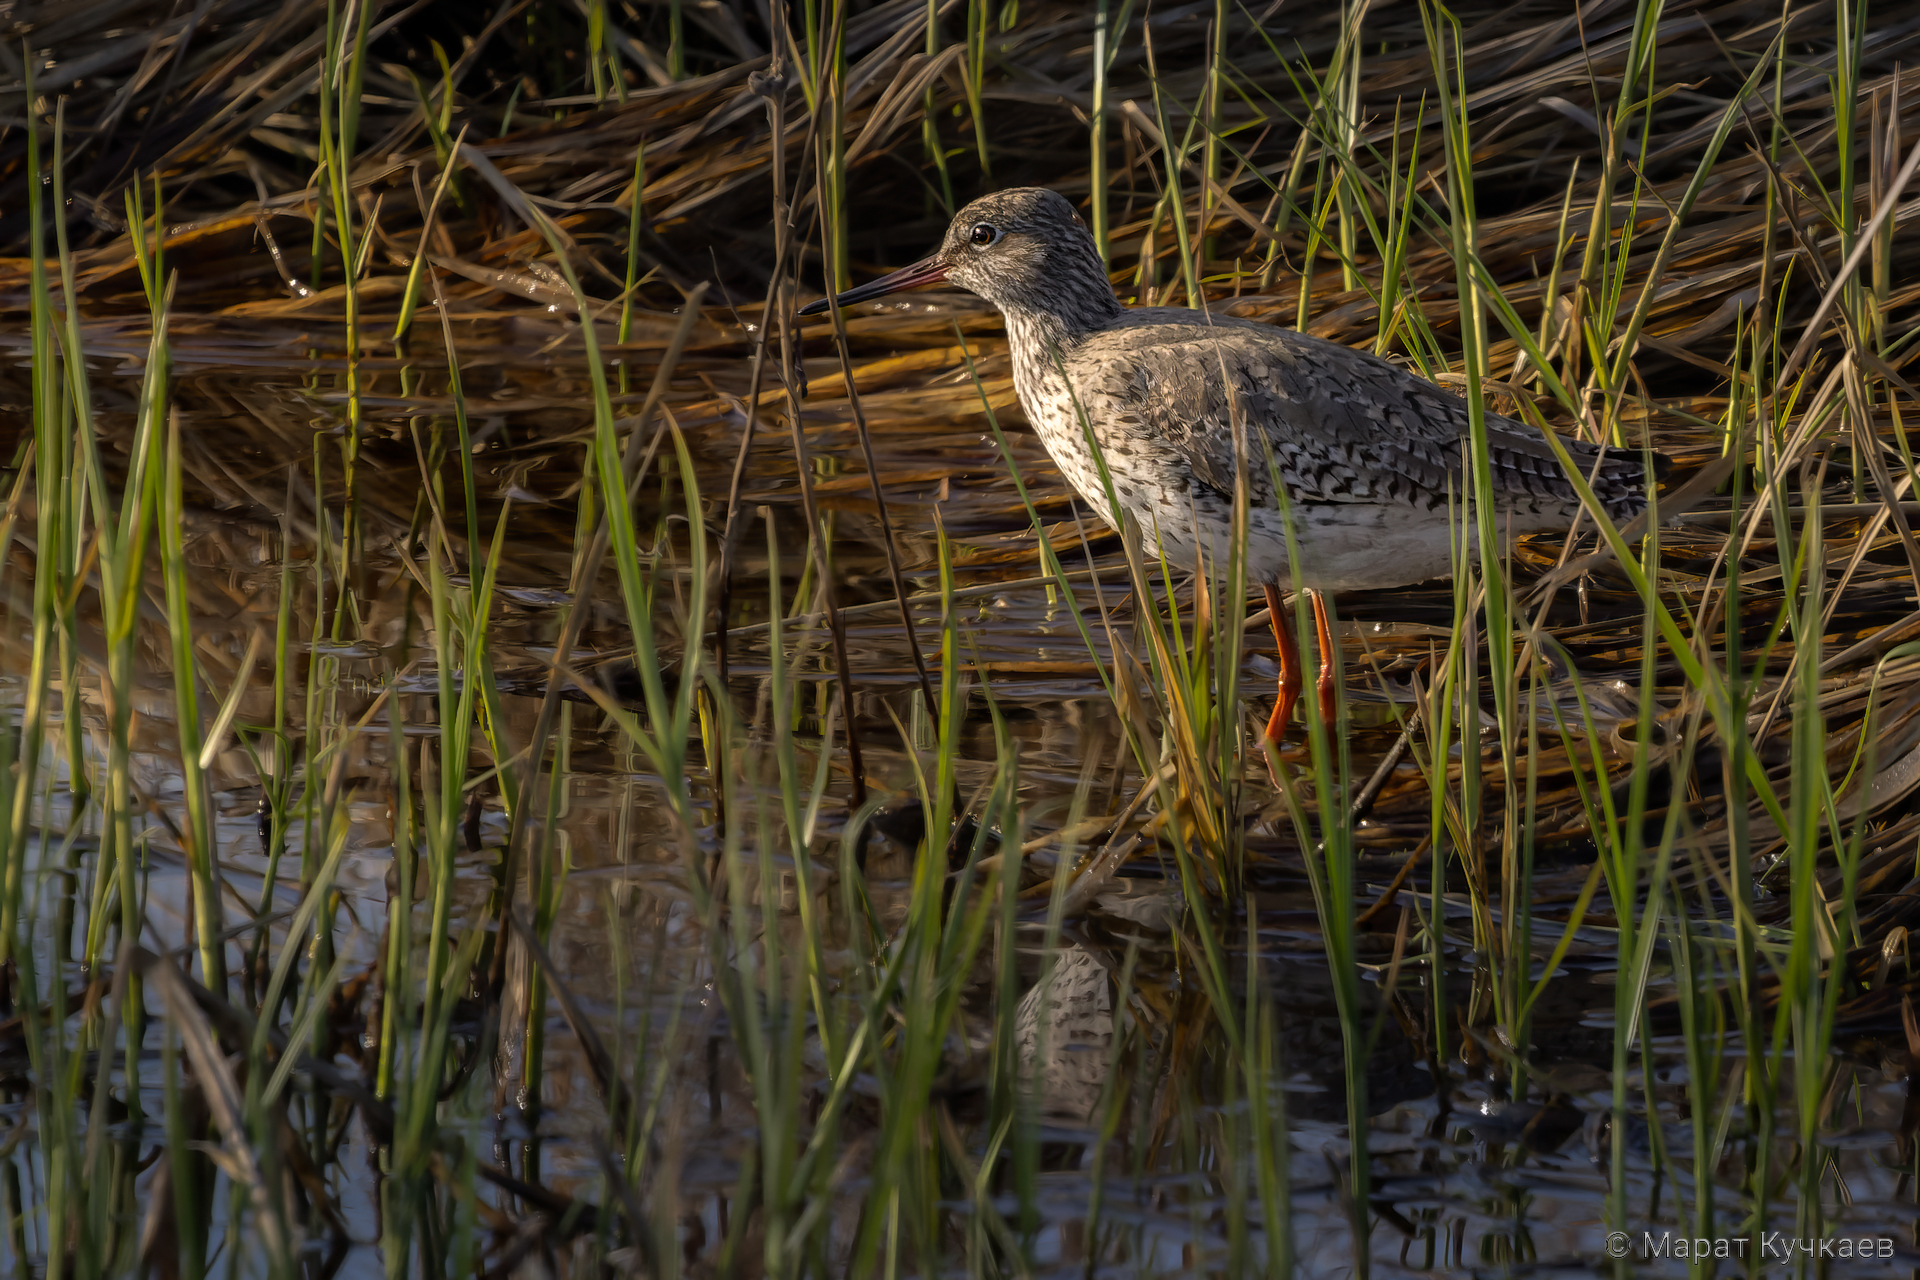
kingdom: Animalia
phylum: Chordata
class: Aves
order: Charadriiformes
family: Scolopacidae
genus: Tringa
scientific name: Tringa totanus
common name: Common redshank
